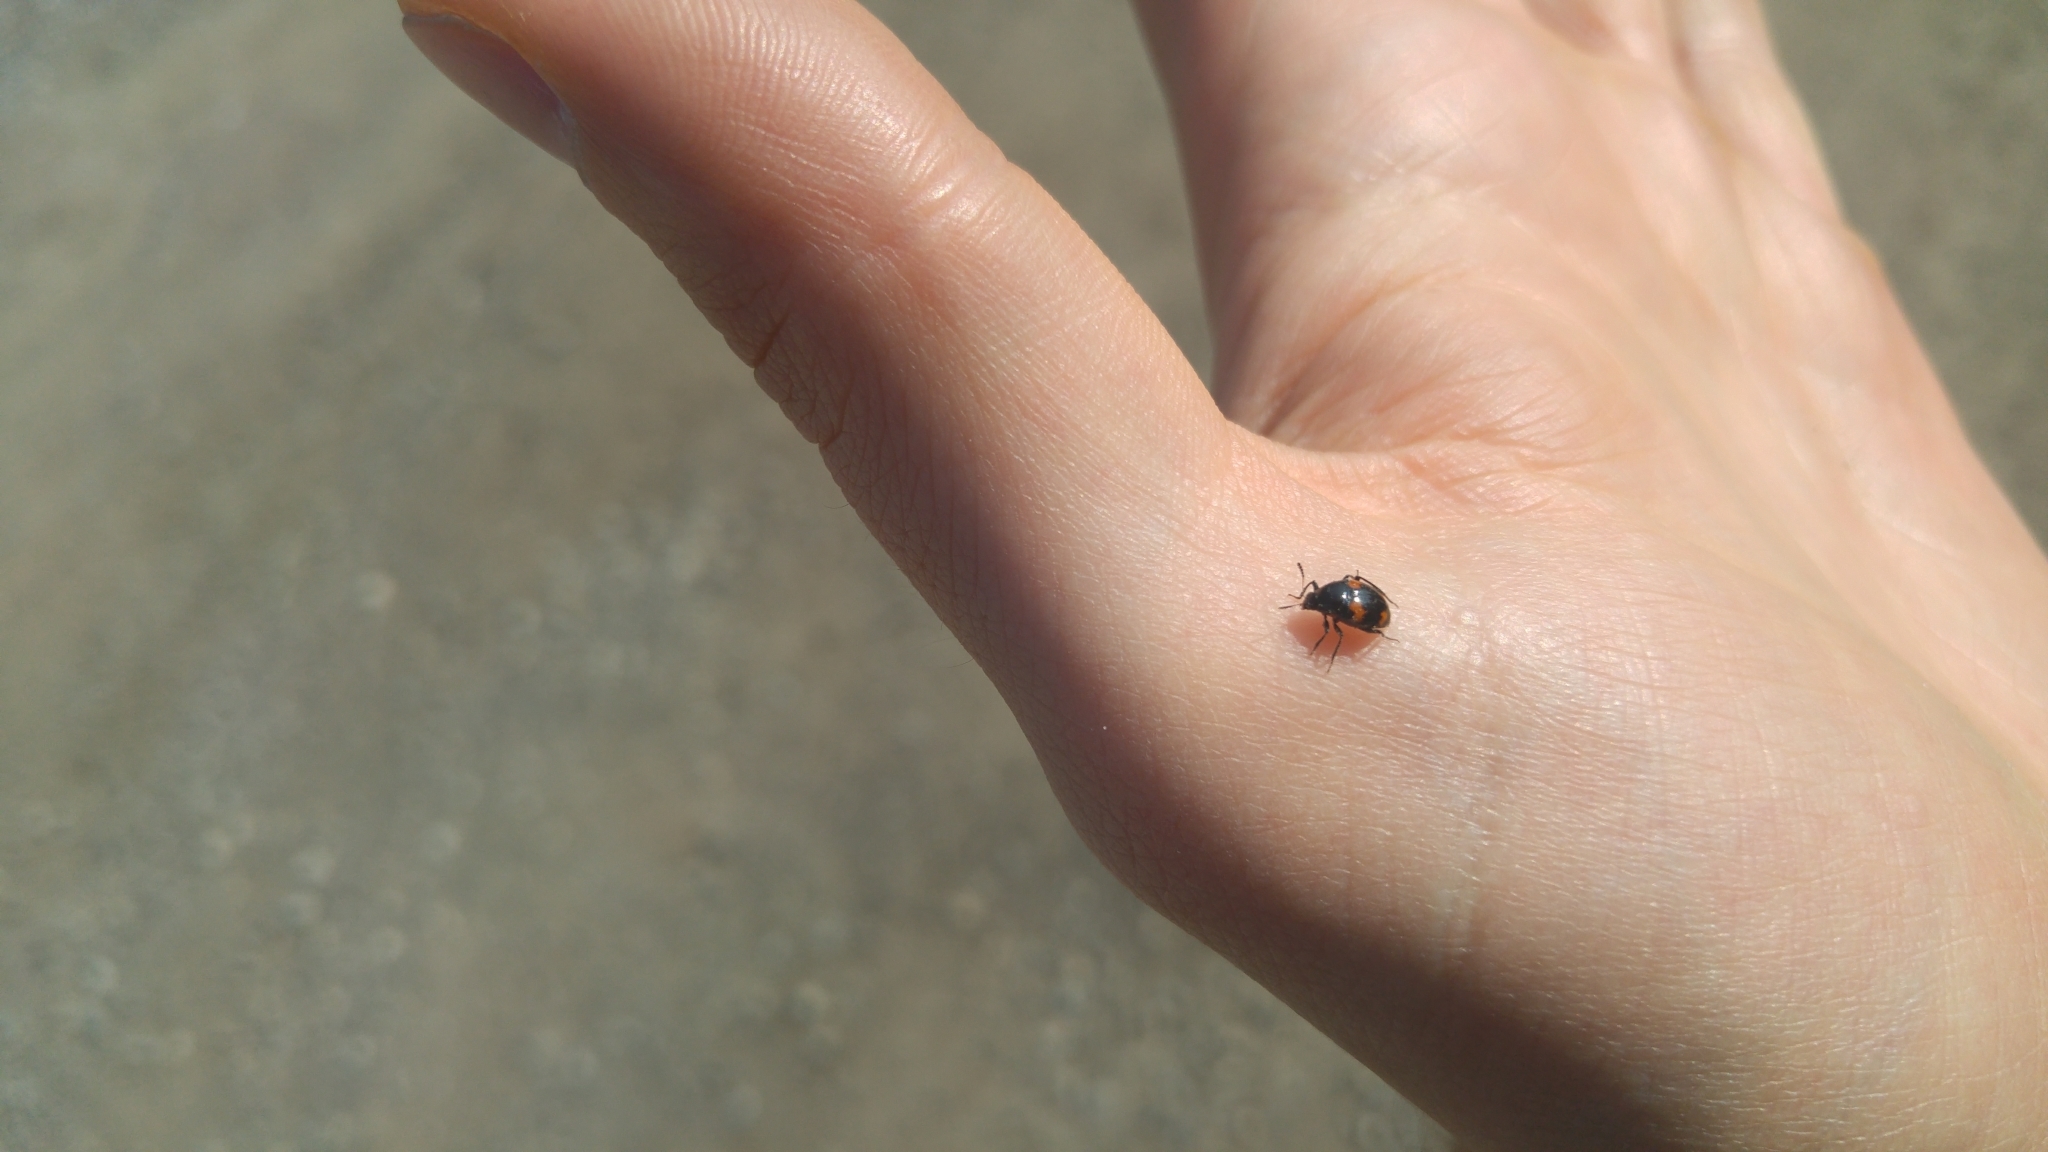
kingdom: Animalia
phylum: Arthropoda
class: Insecta
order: Coleoptera
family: Staphylinidae
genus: Scaphidium
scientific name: Scaphidium quadrimaculatum
